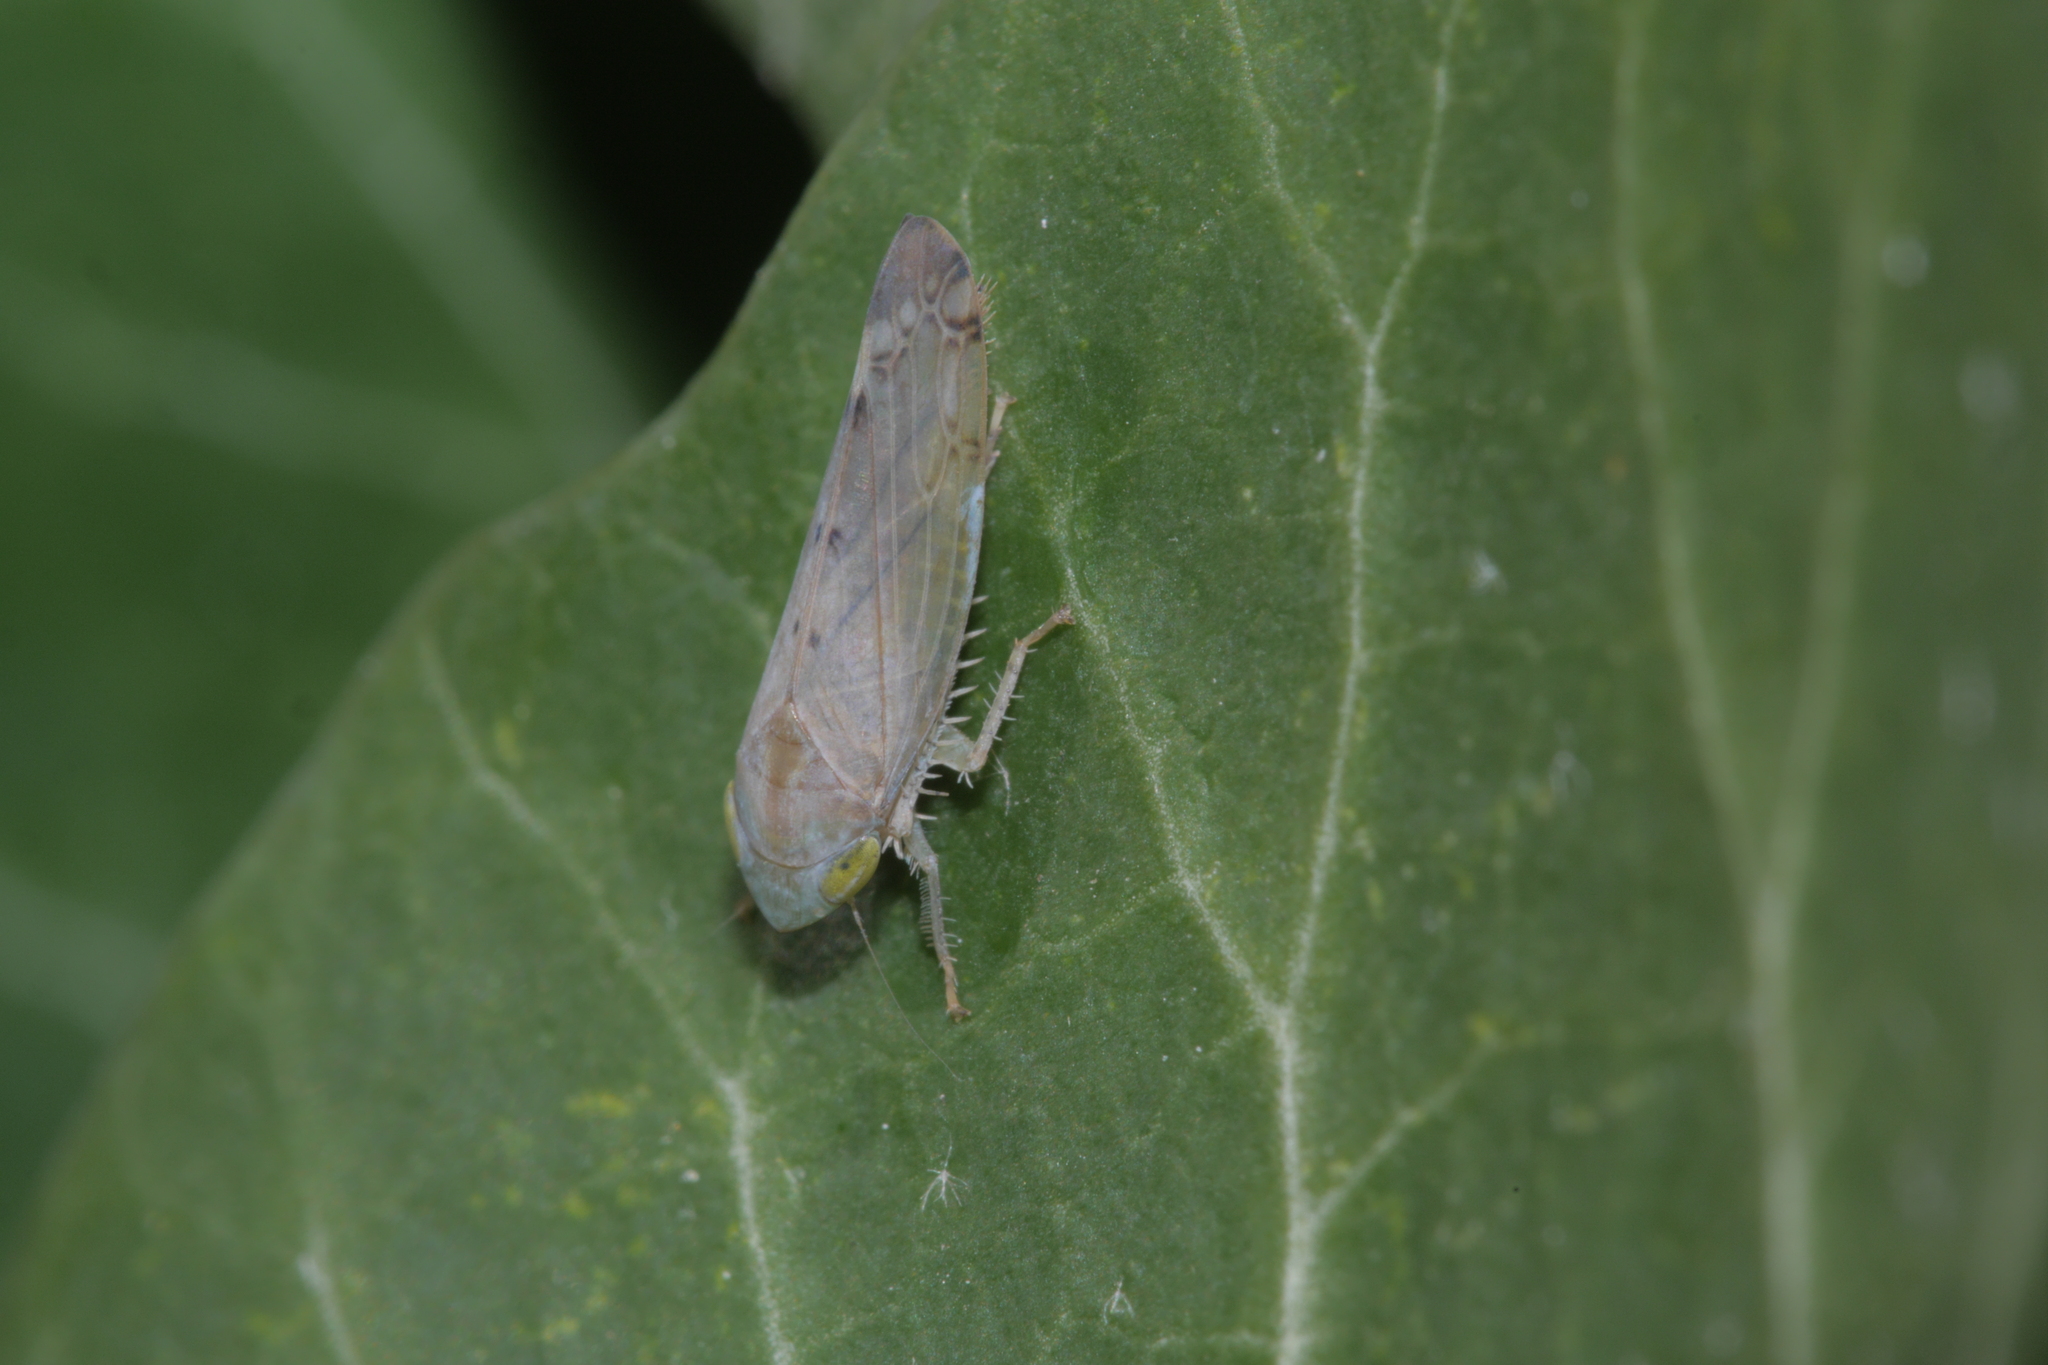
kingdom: Animalia
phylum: Arthropoda
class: Insecta
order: Hemiptera
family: Cicadellidae
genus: Synophropsis
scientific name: Synophropsis lauri
